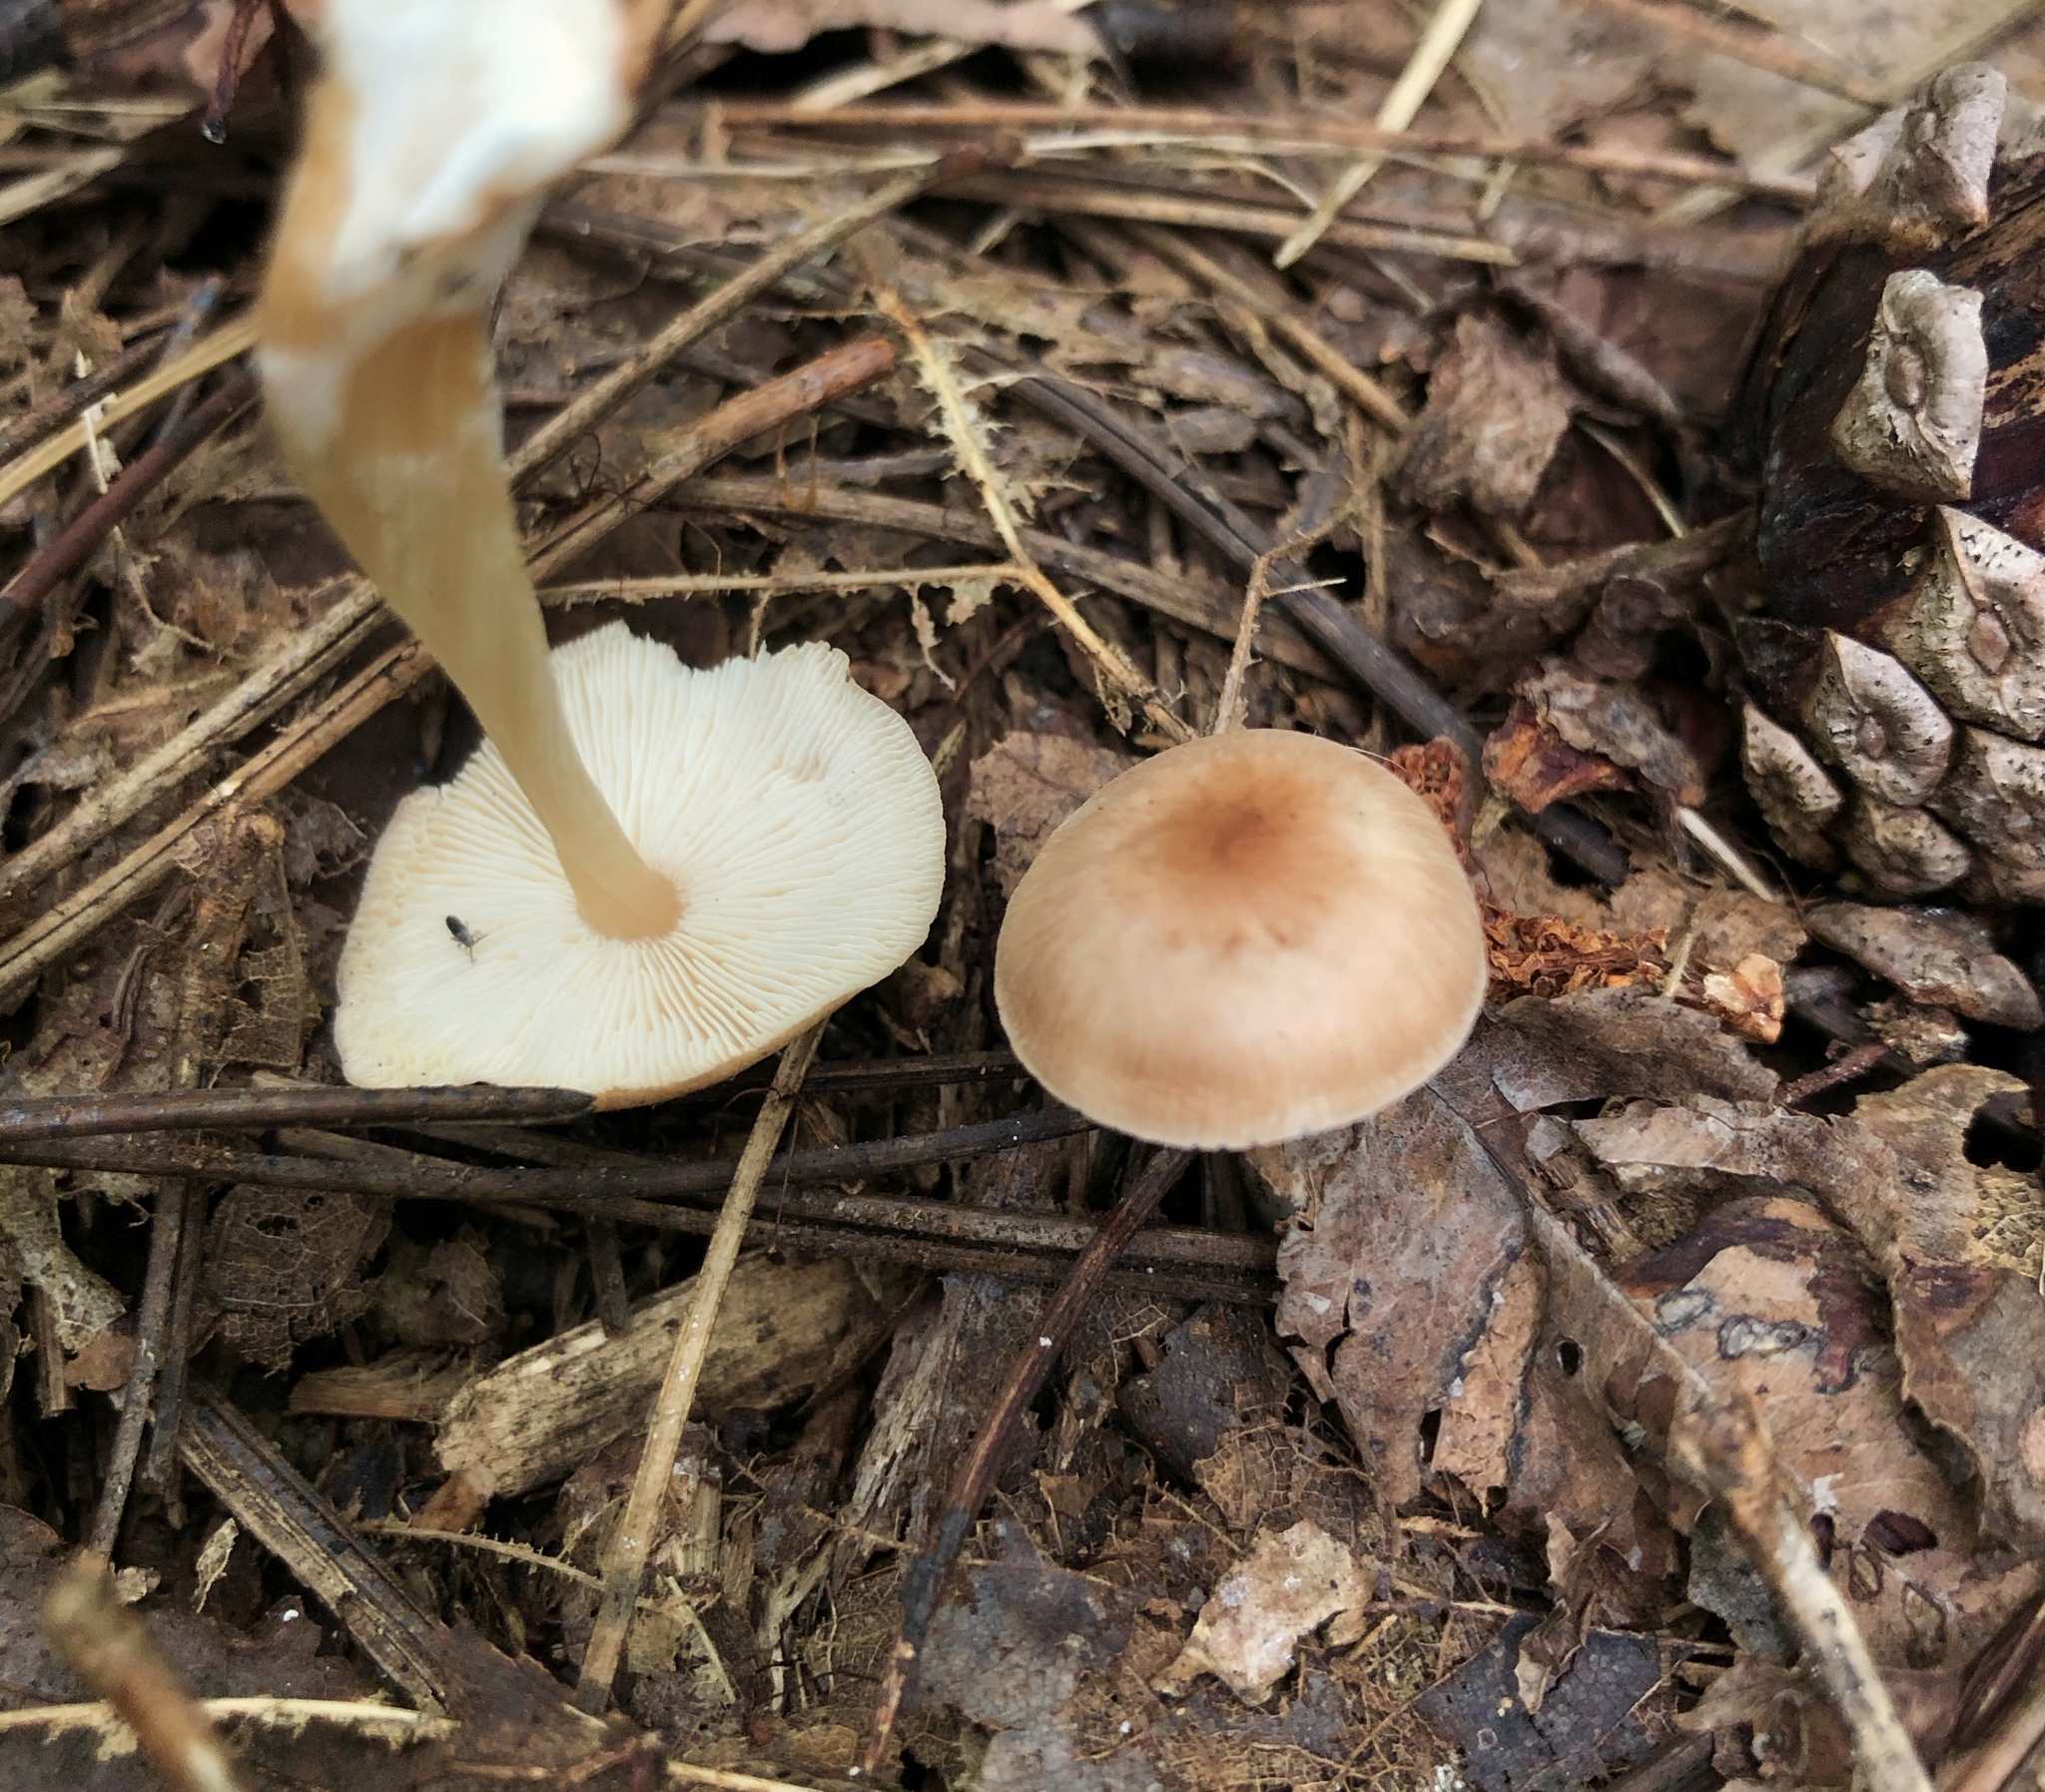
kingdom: Fungi
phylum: Basidiomycota
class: Agaricomycetes
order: Agaricales
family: Omphalotaceae
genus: Gymnopus
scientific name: Gymnopus dryophilus
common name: Penny top
